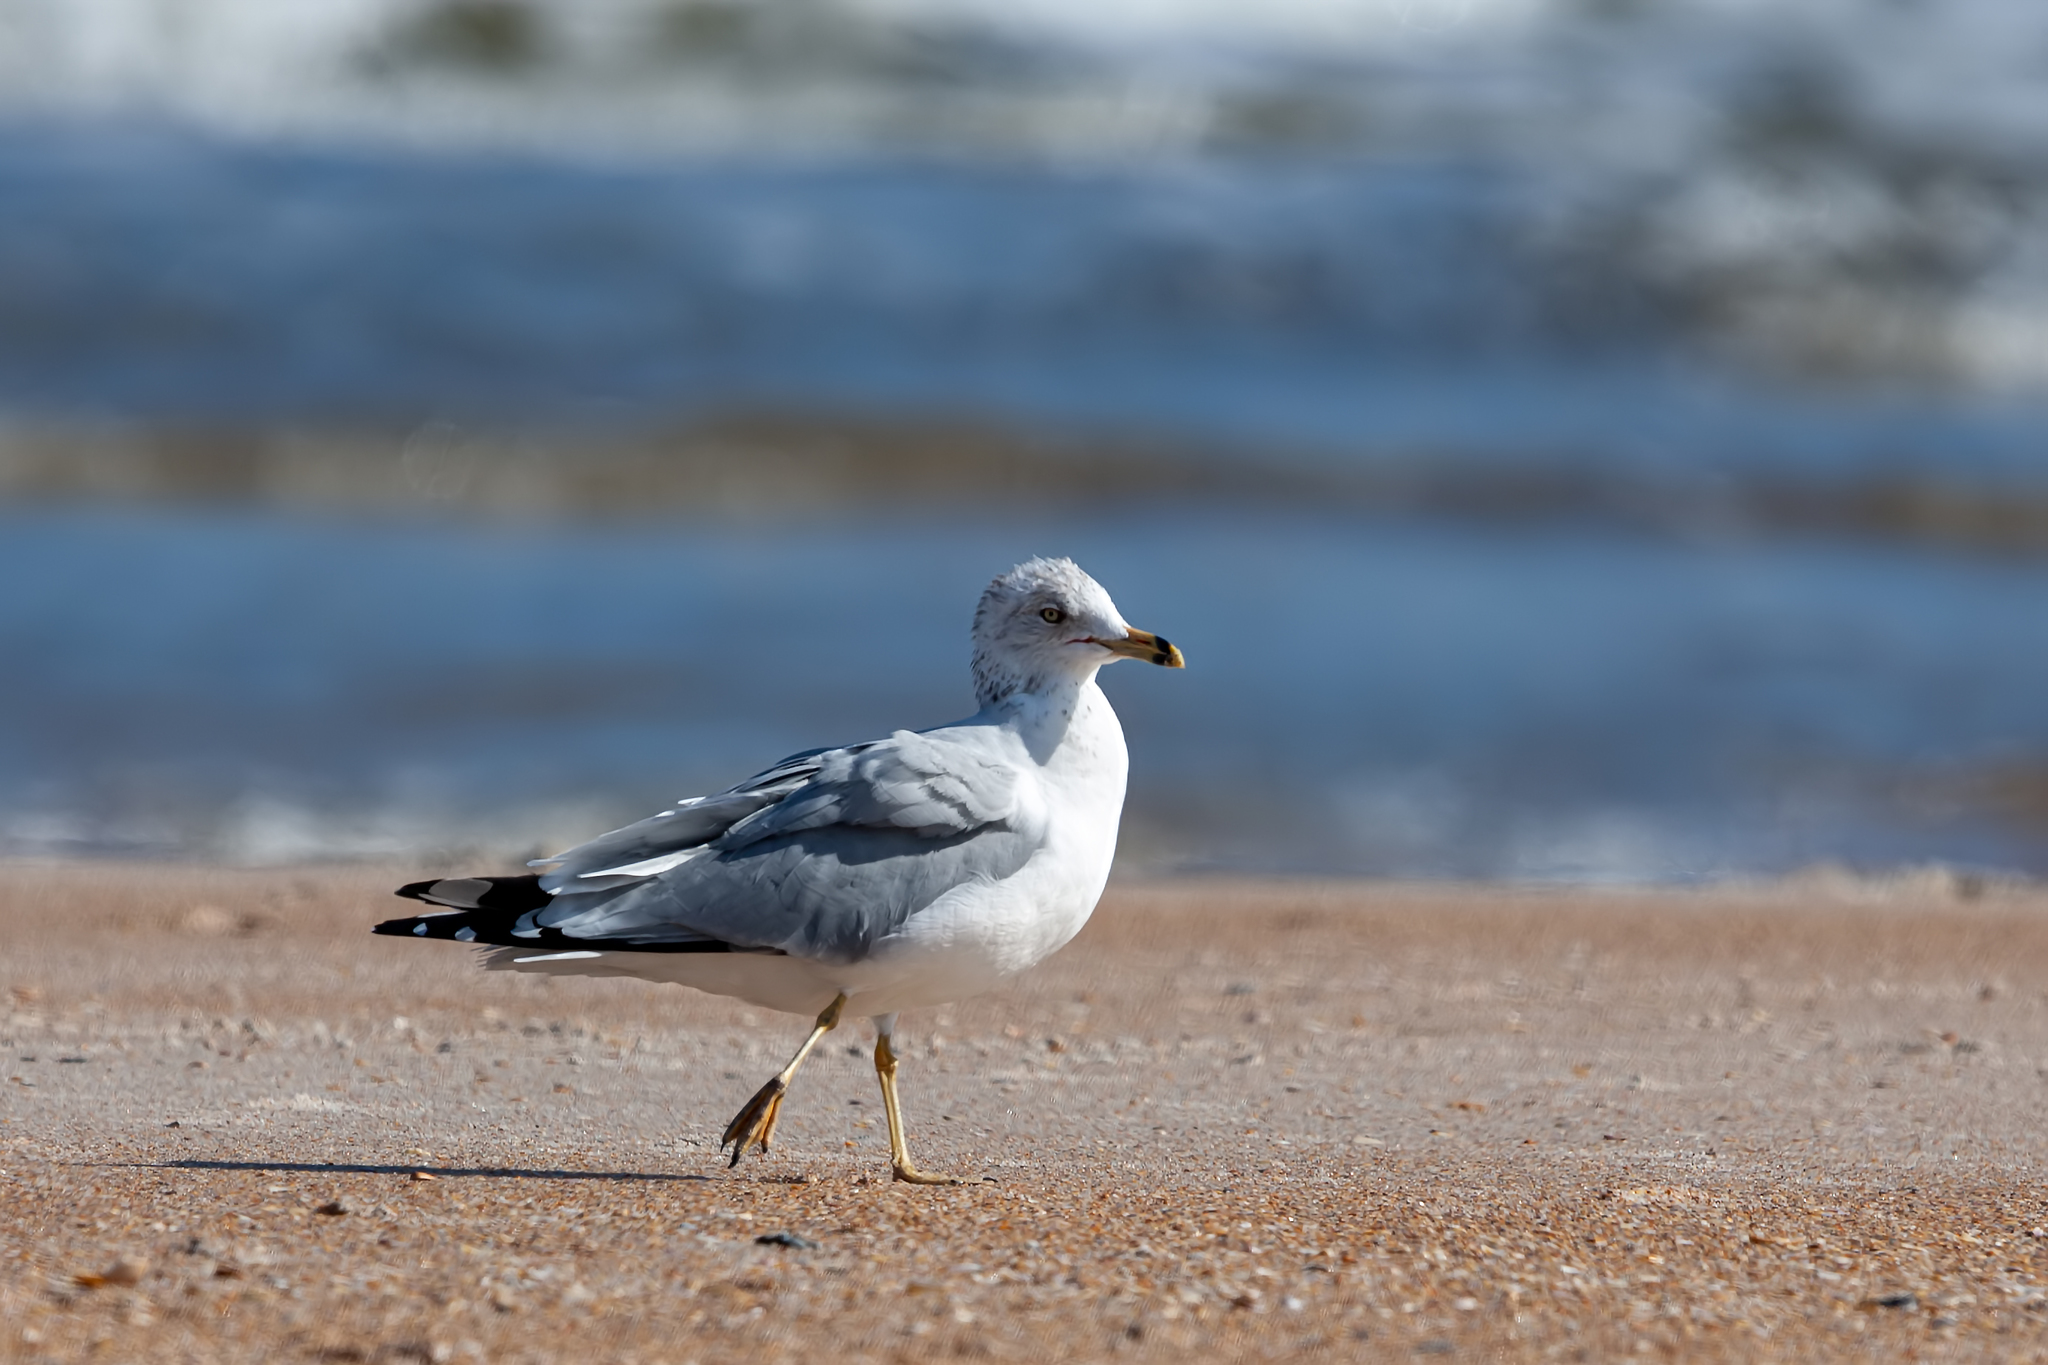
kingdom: Animalia
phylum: Chordata
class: Aves
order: Charadriiformes
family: Laridae
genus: Larus
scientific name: Larus delawarensis
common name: Ring-billed gull
